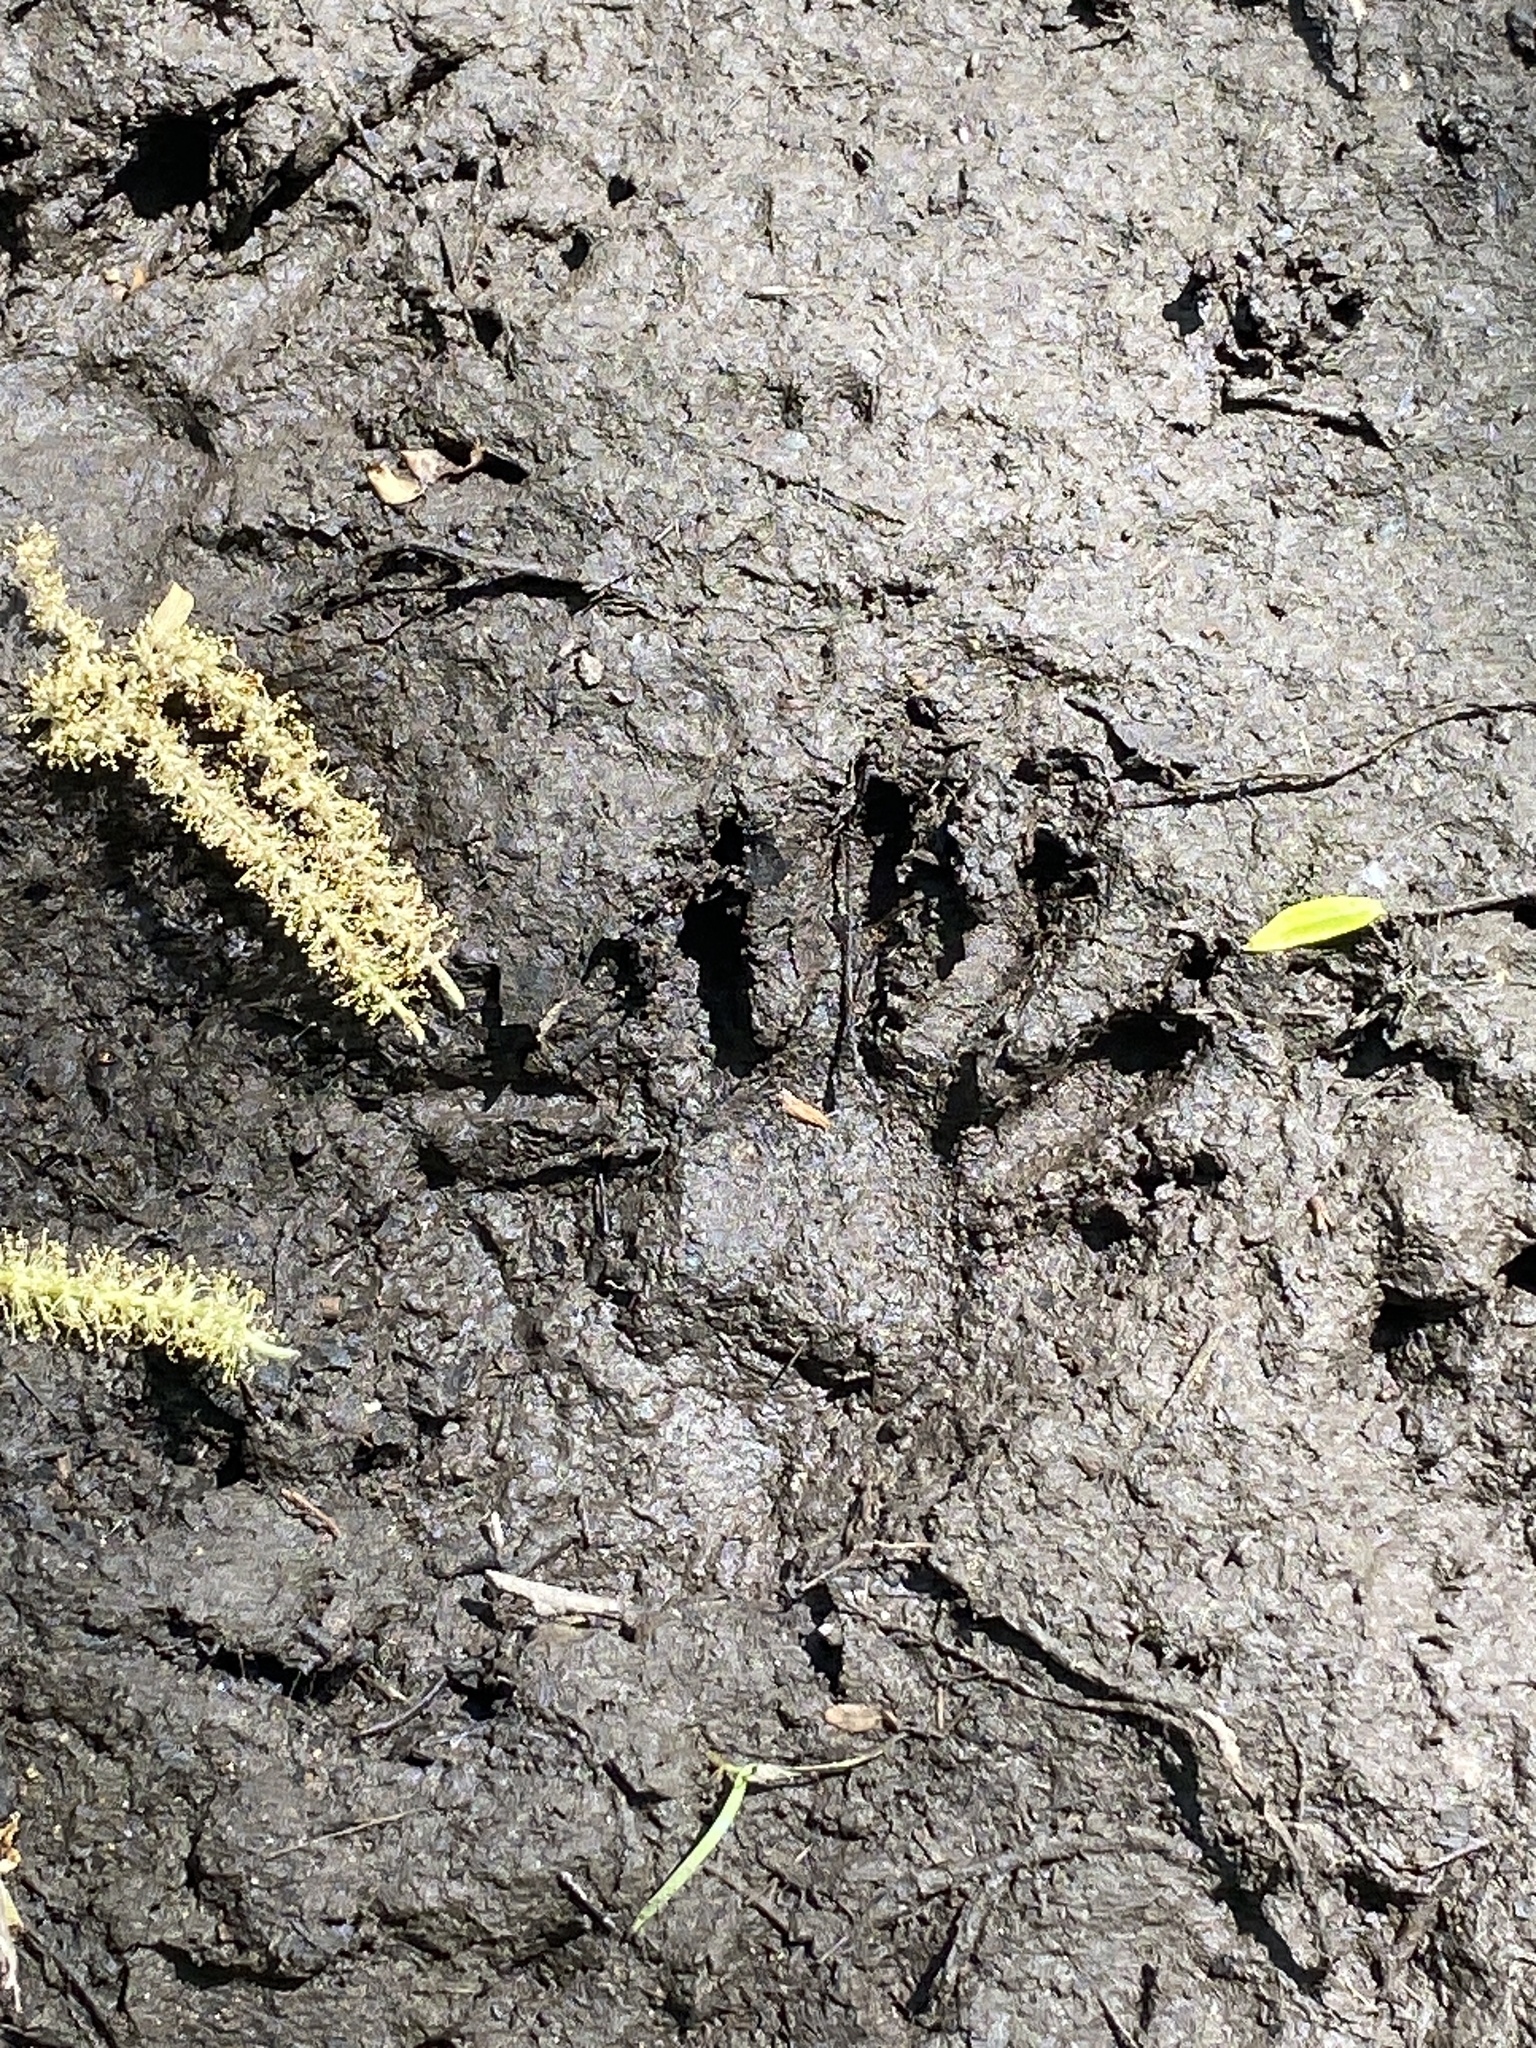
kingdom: Animalia
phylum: Chordata
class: Mammalia
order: Carnivora
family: Procyonidae
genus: Procyon
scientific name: Procyon lotor
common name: Raccoon
